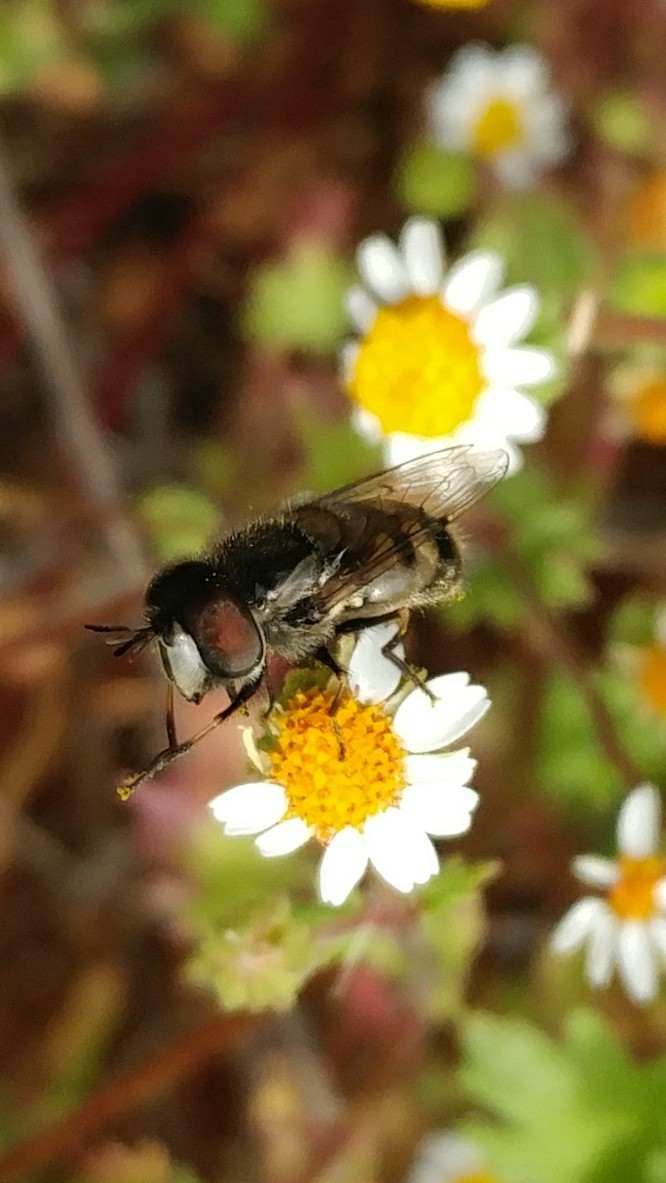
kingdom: Animalia
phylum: Arthropoda
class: Insecta
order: Diptera
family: Syrphidae
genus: Copestylum
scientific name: Copestylum lentum
